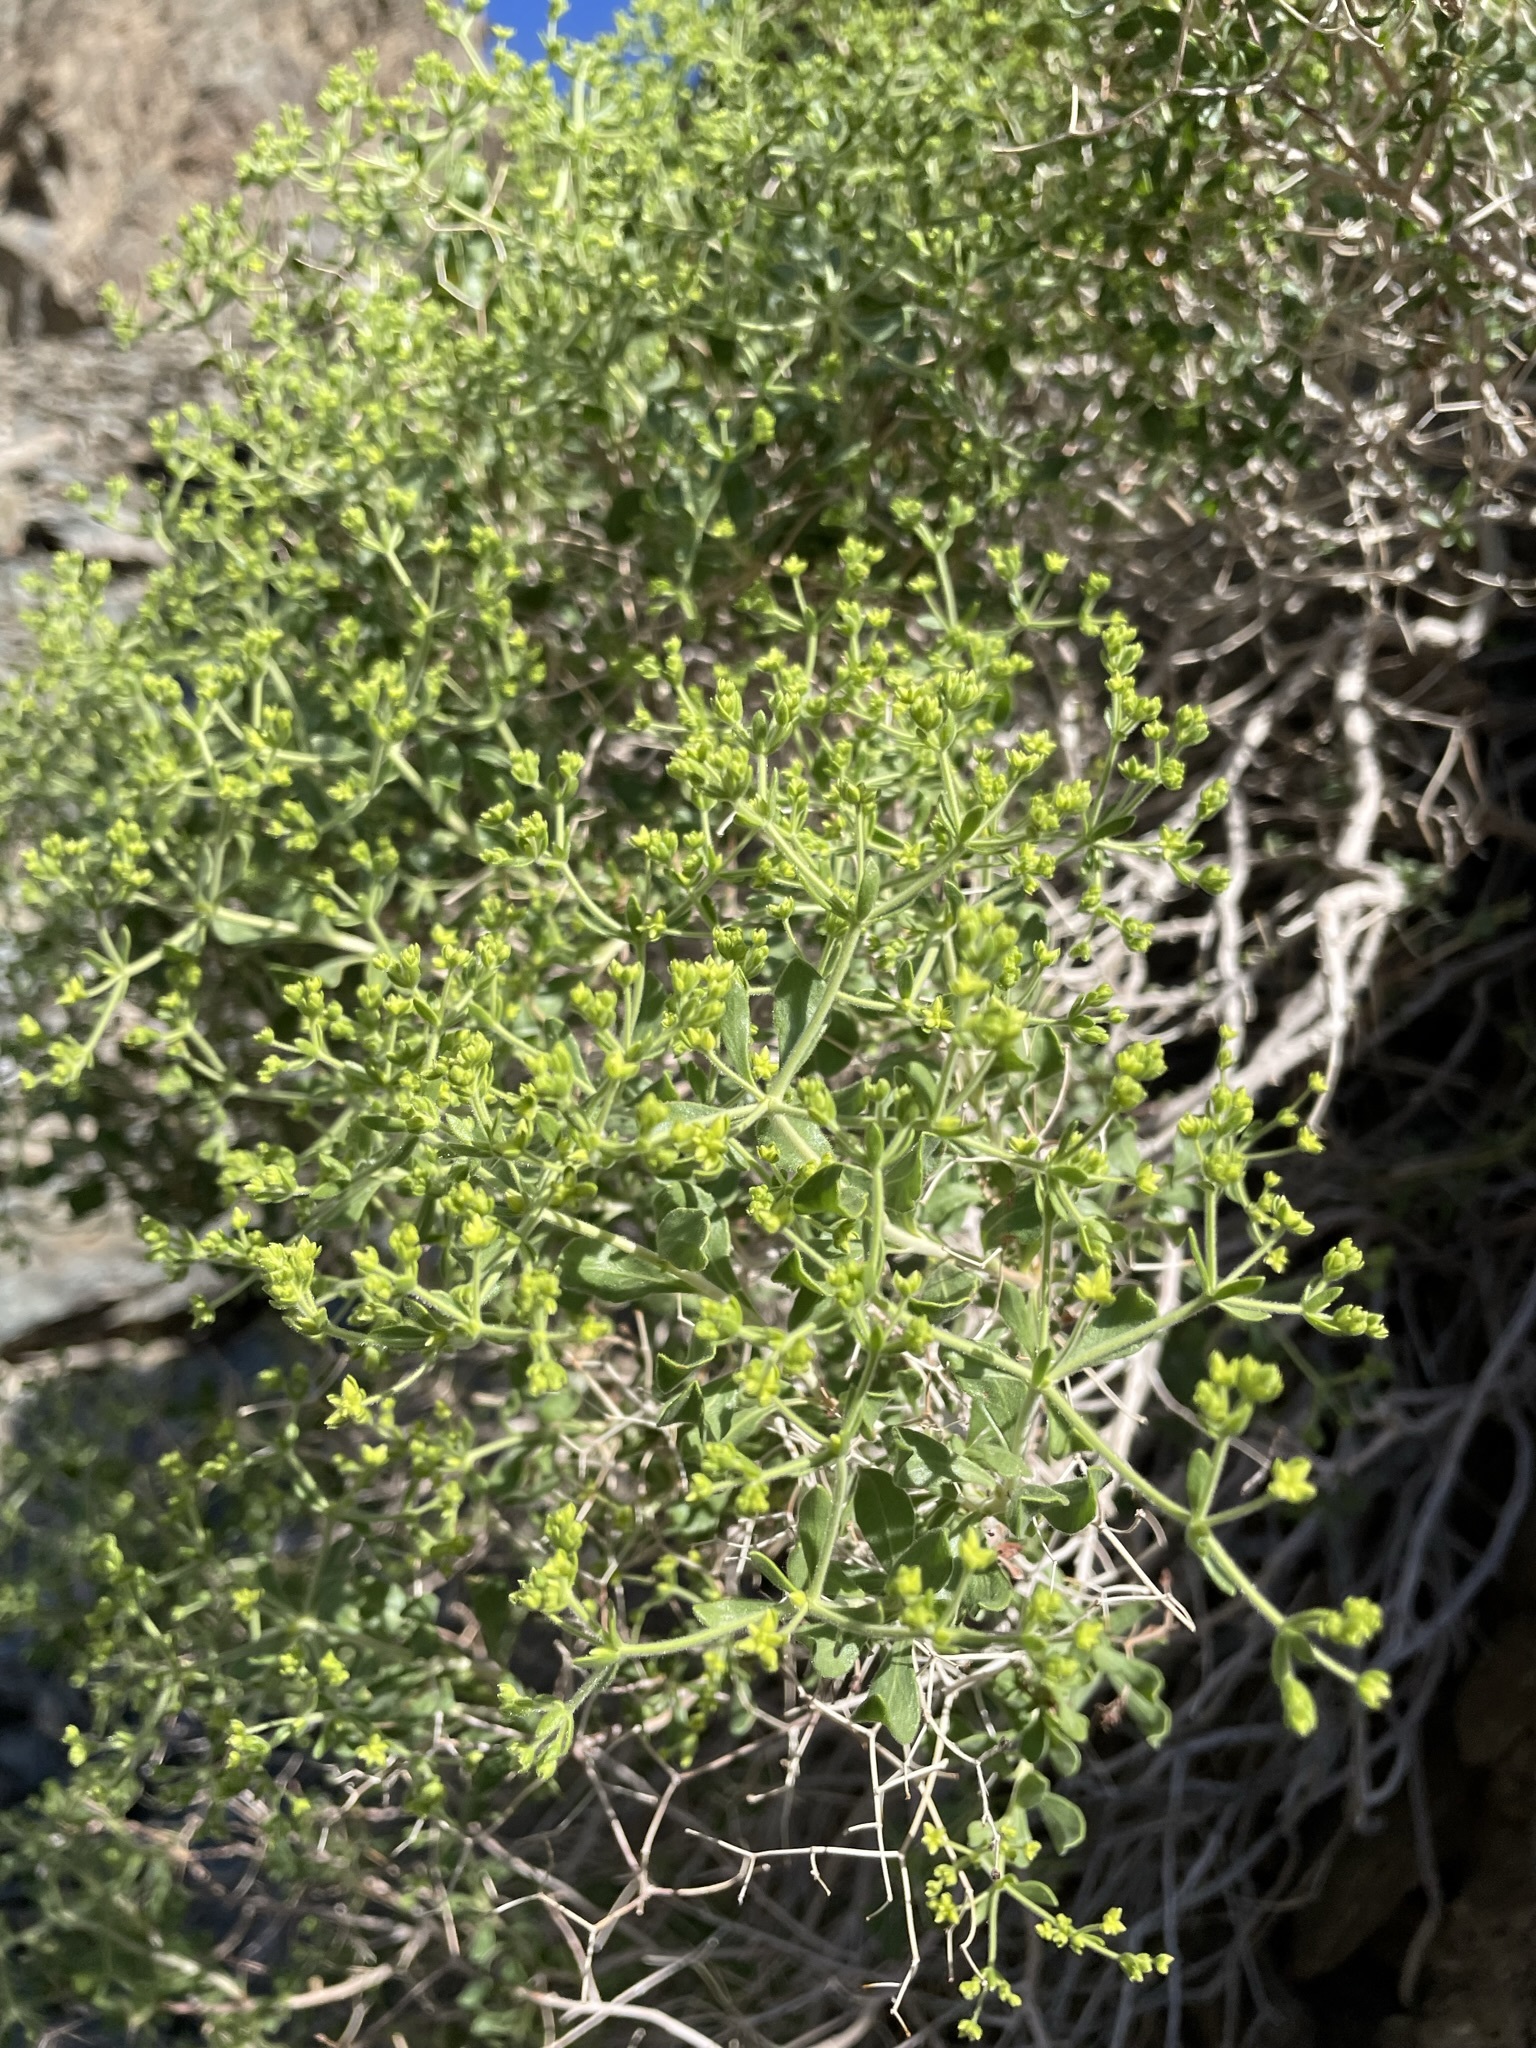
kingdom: Plantae
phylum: Tracheophyta
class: Magnoliopsida
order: Caryophyllales
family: Polygonaceae
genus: Dedeckera
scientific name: Dedeckera eurekensis
